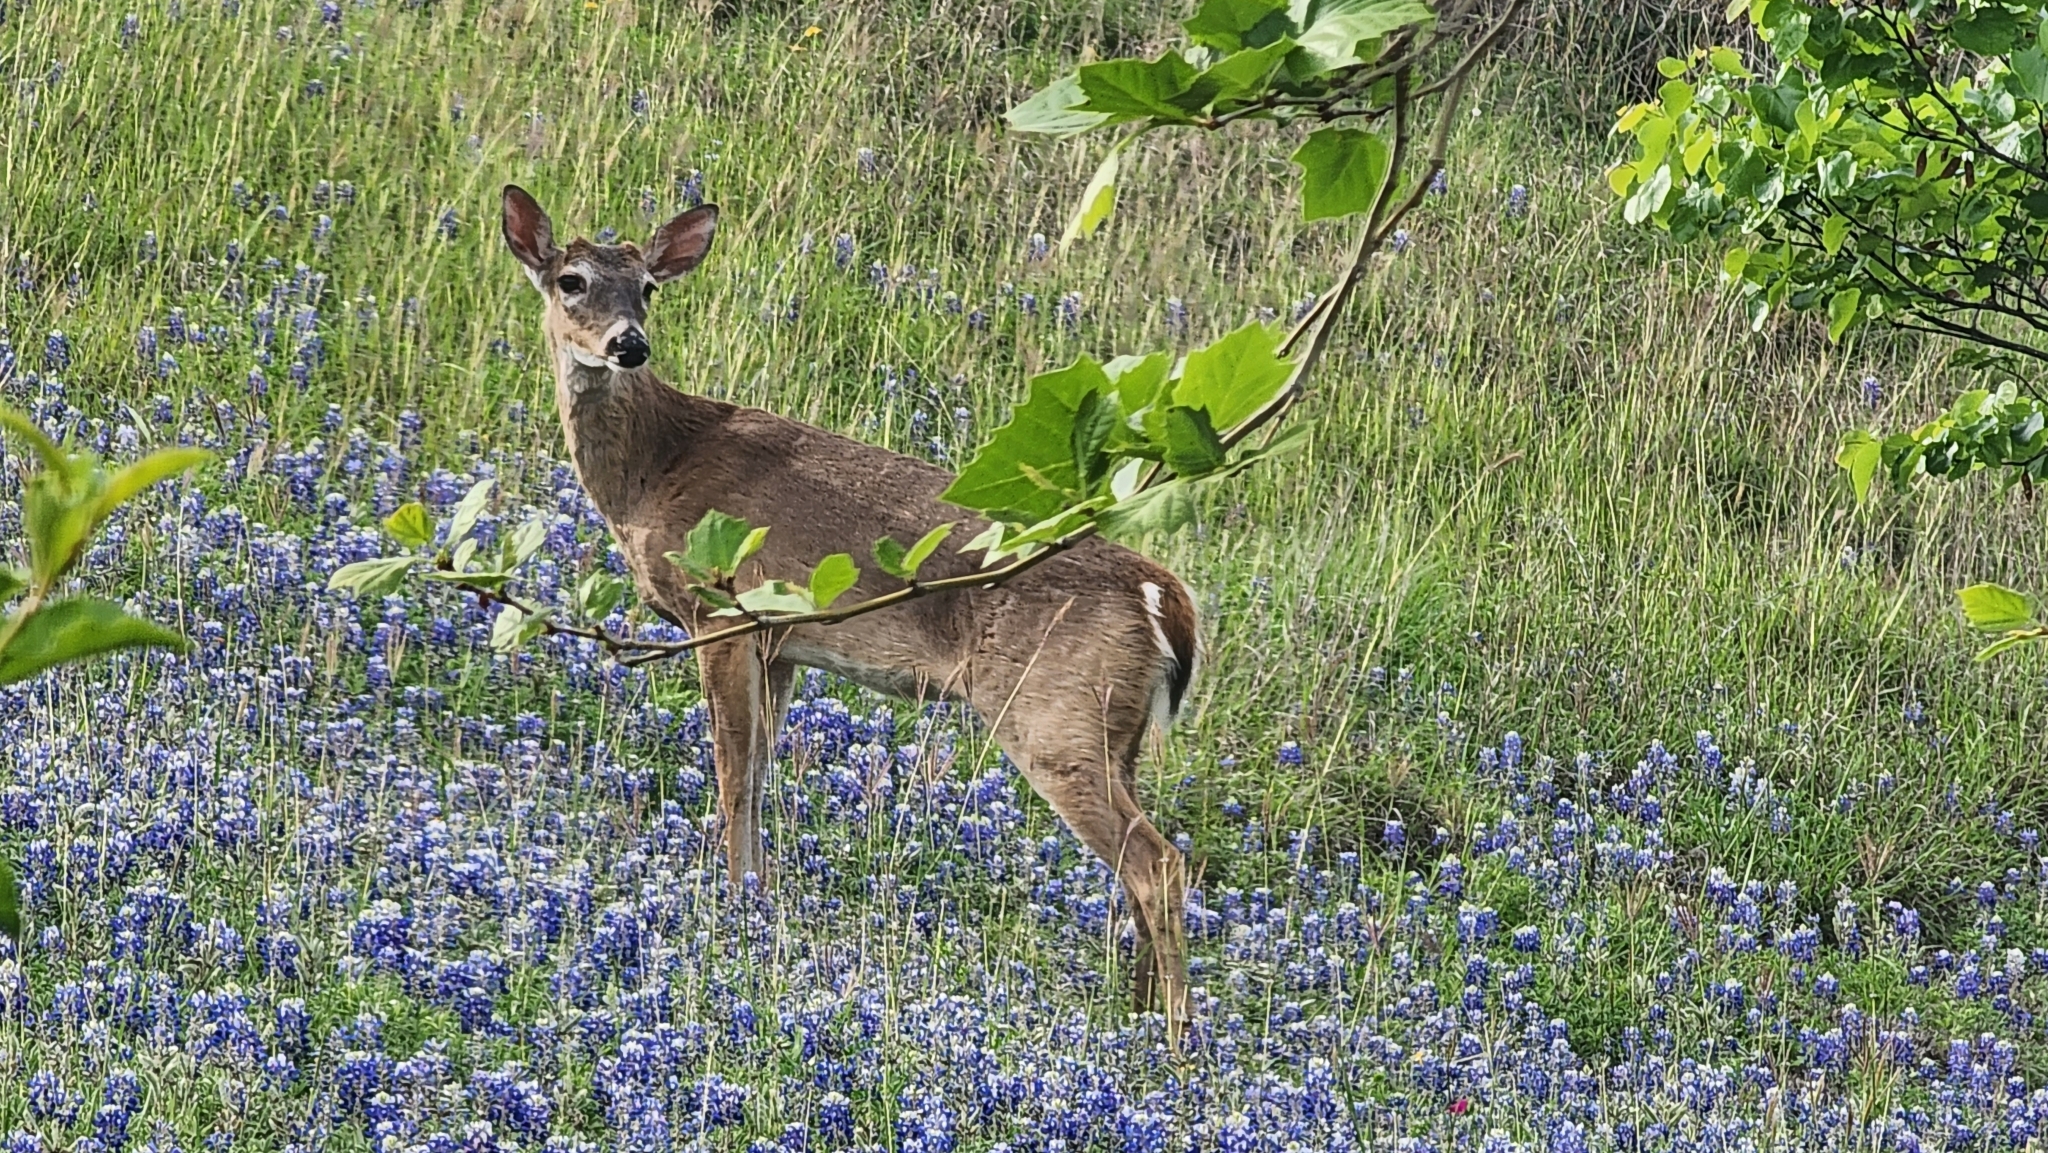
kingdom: Animalia
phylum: Chordata
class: Mammalia
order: Artiodactyla
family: Cervidae
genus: Odocoileus
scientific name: Odocoileus virginianus
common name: White-tailed deer
